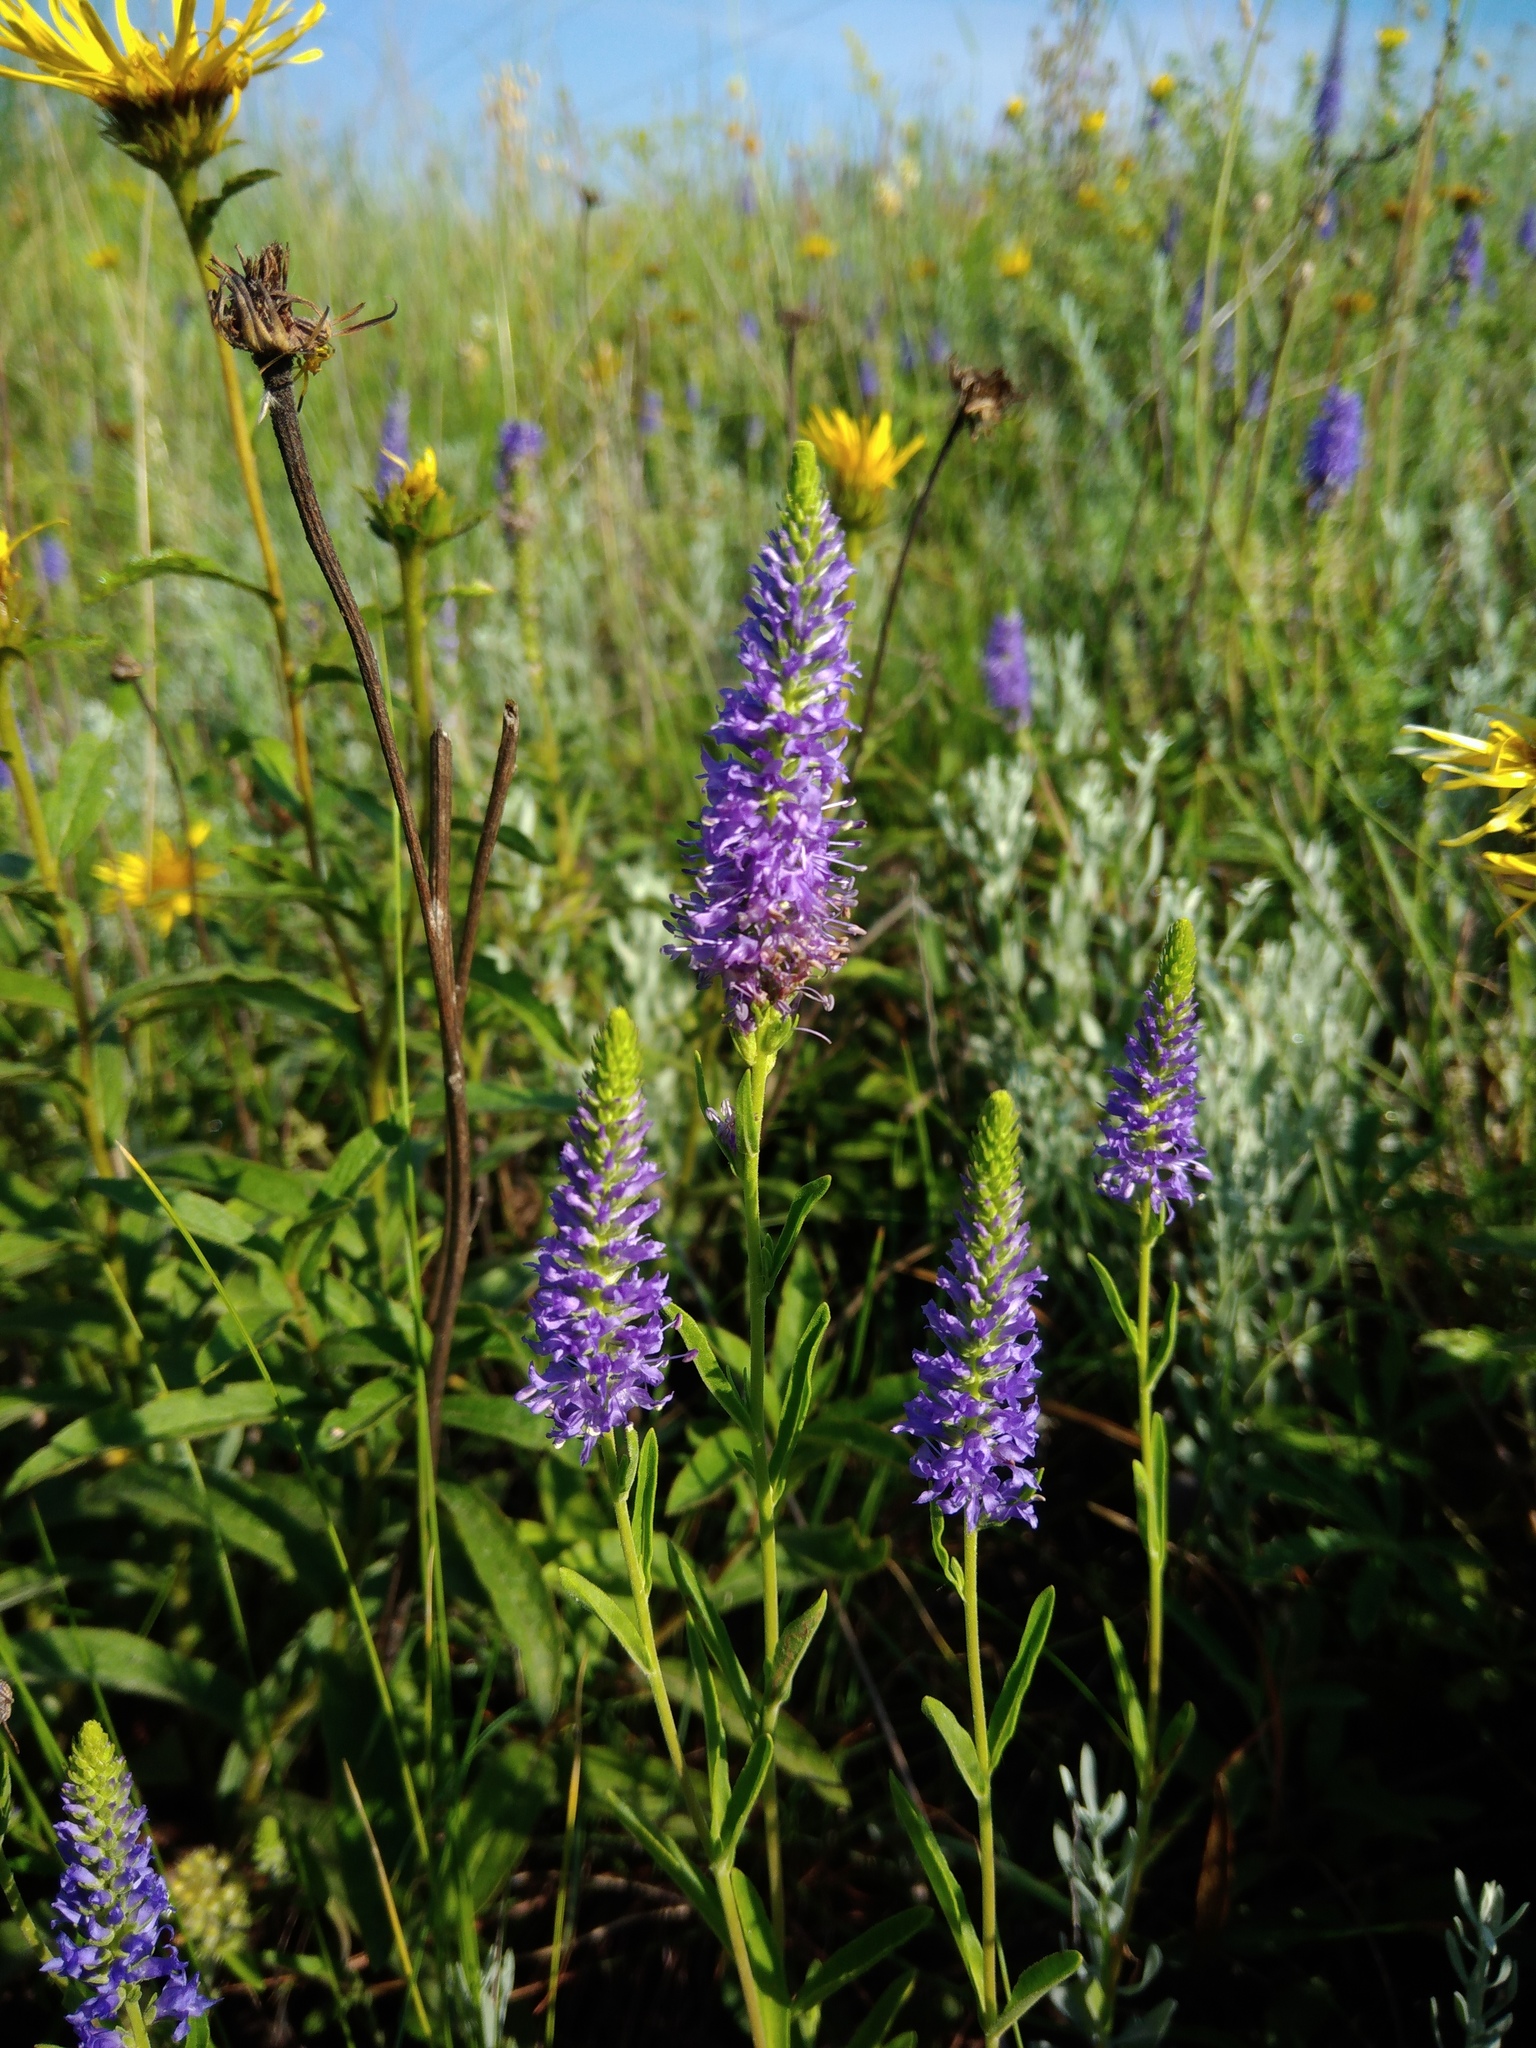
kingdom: Plantae
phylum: Tracheophyta
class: Magnoliopsida
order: Lamiales
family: Plantaginaceae
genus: Veronica
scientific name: Veronica spicata
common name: Spiked speedwell
